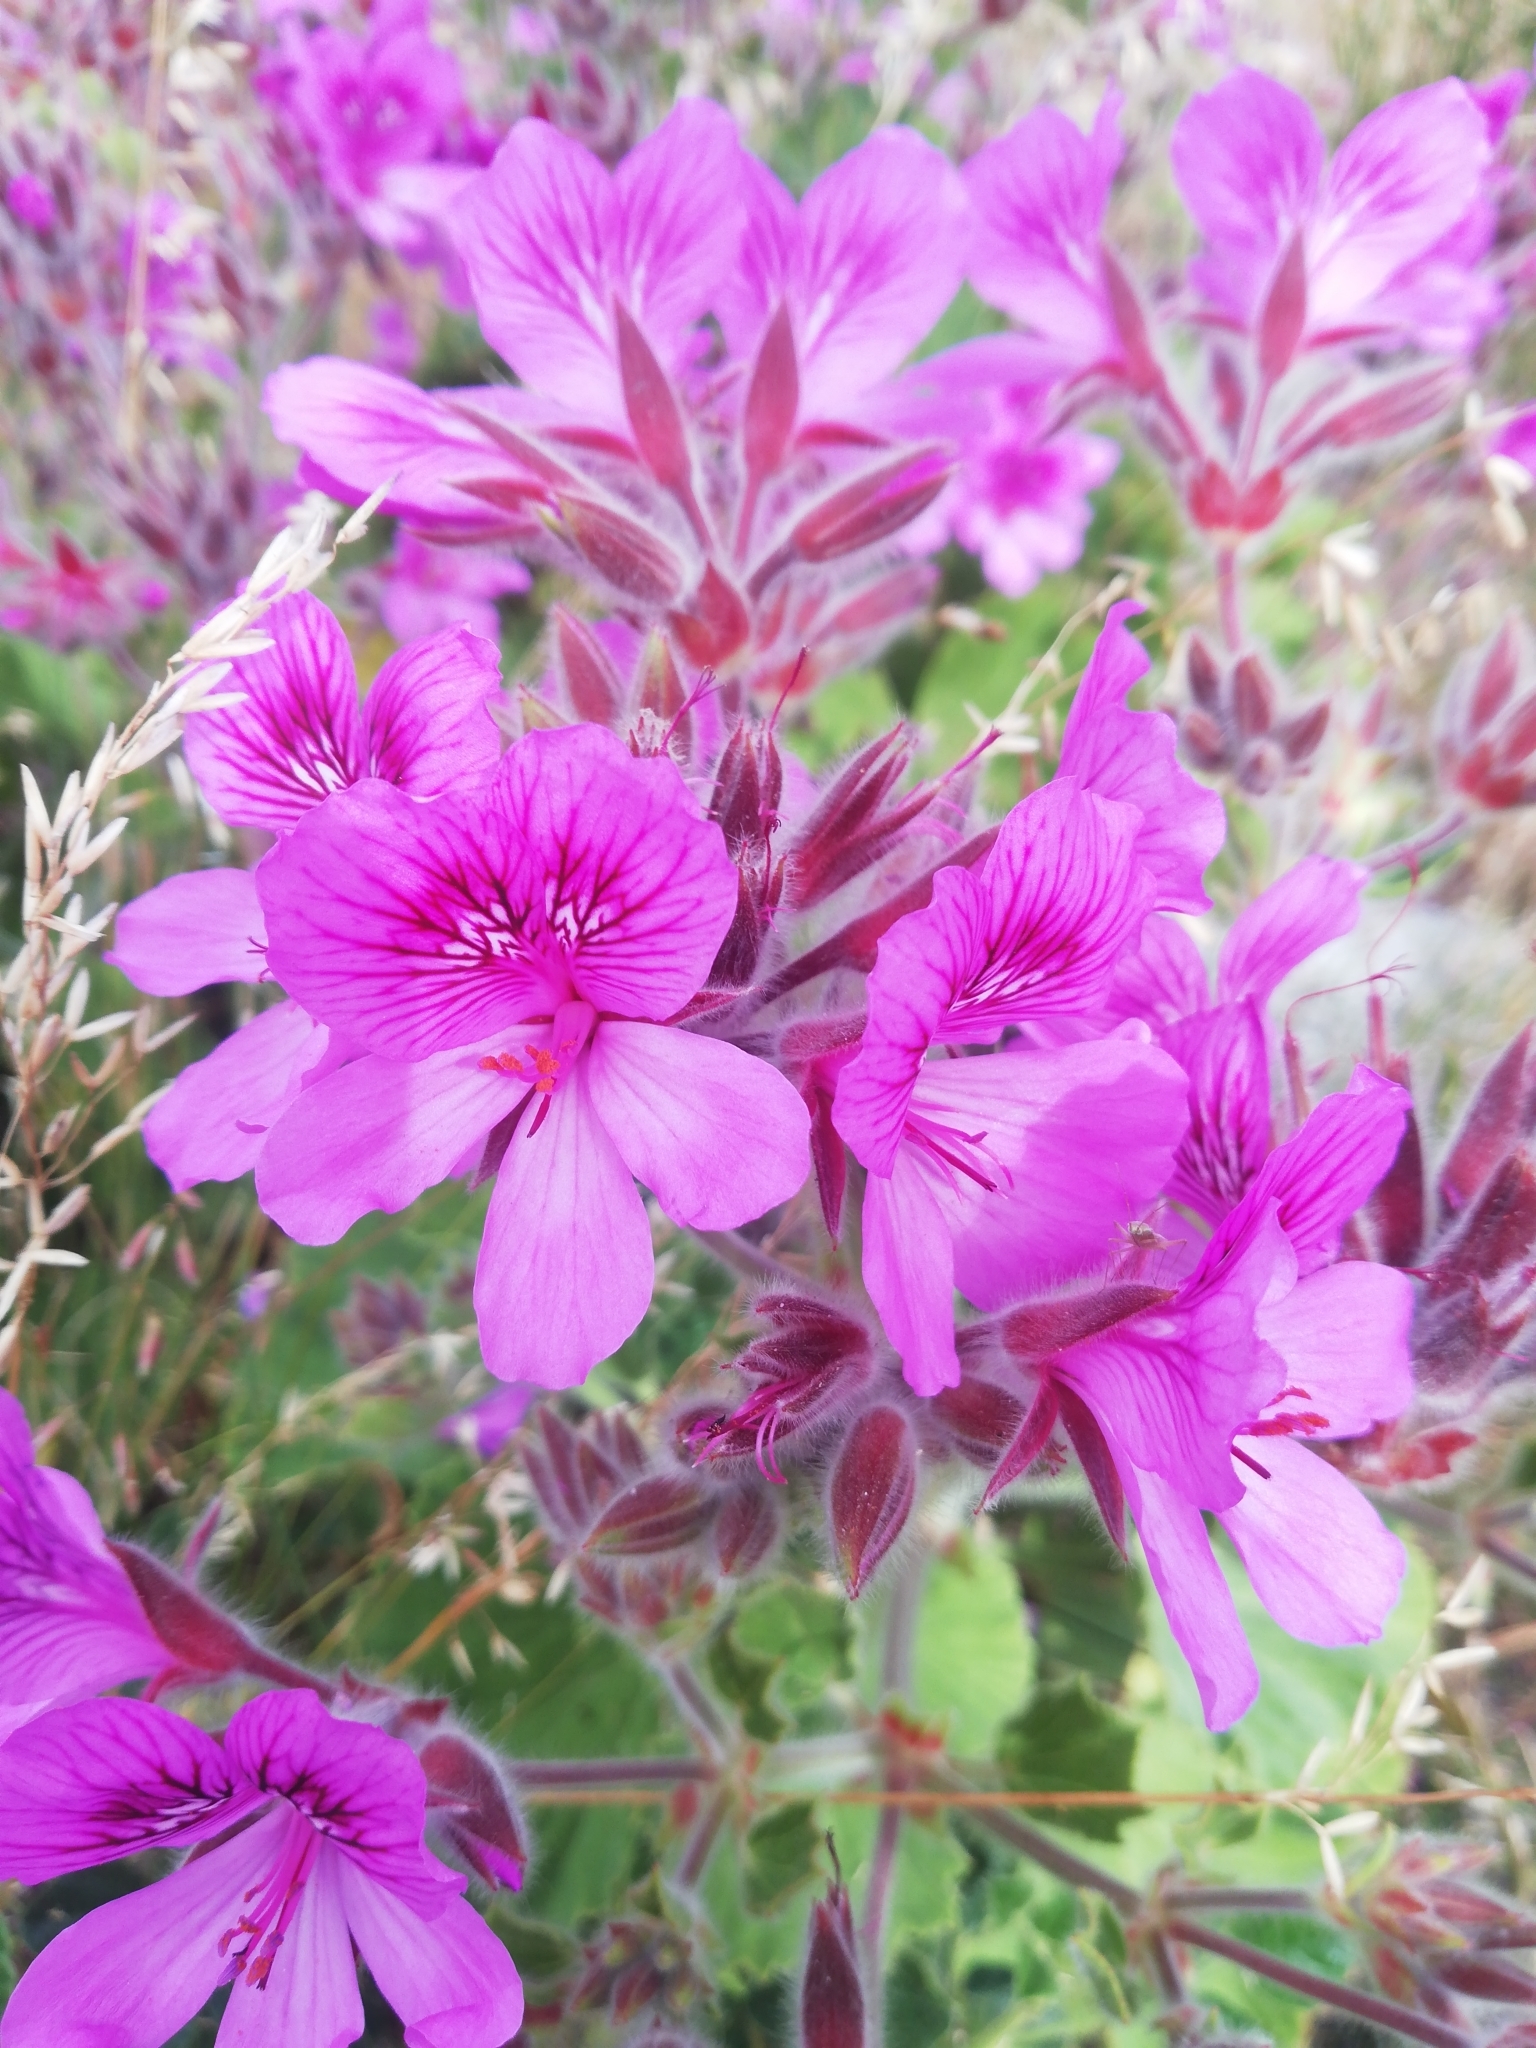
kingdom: Plantae
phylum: Tracheophyta
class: Magnoliopsida
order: Geraniales
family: Geraniaceae
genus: Pelargonium
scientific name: Pelargonium cucullatum
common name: Tree pelargonium
